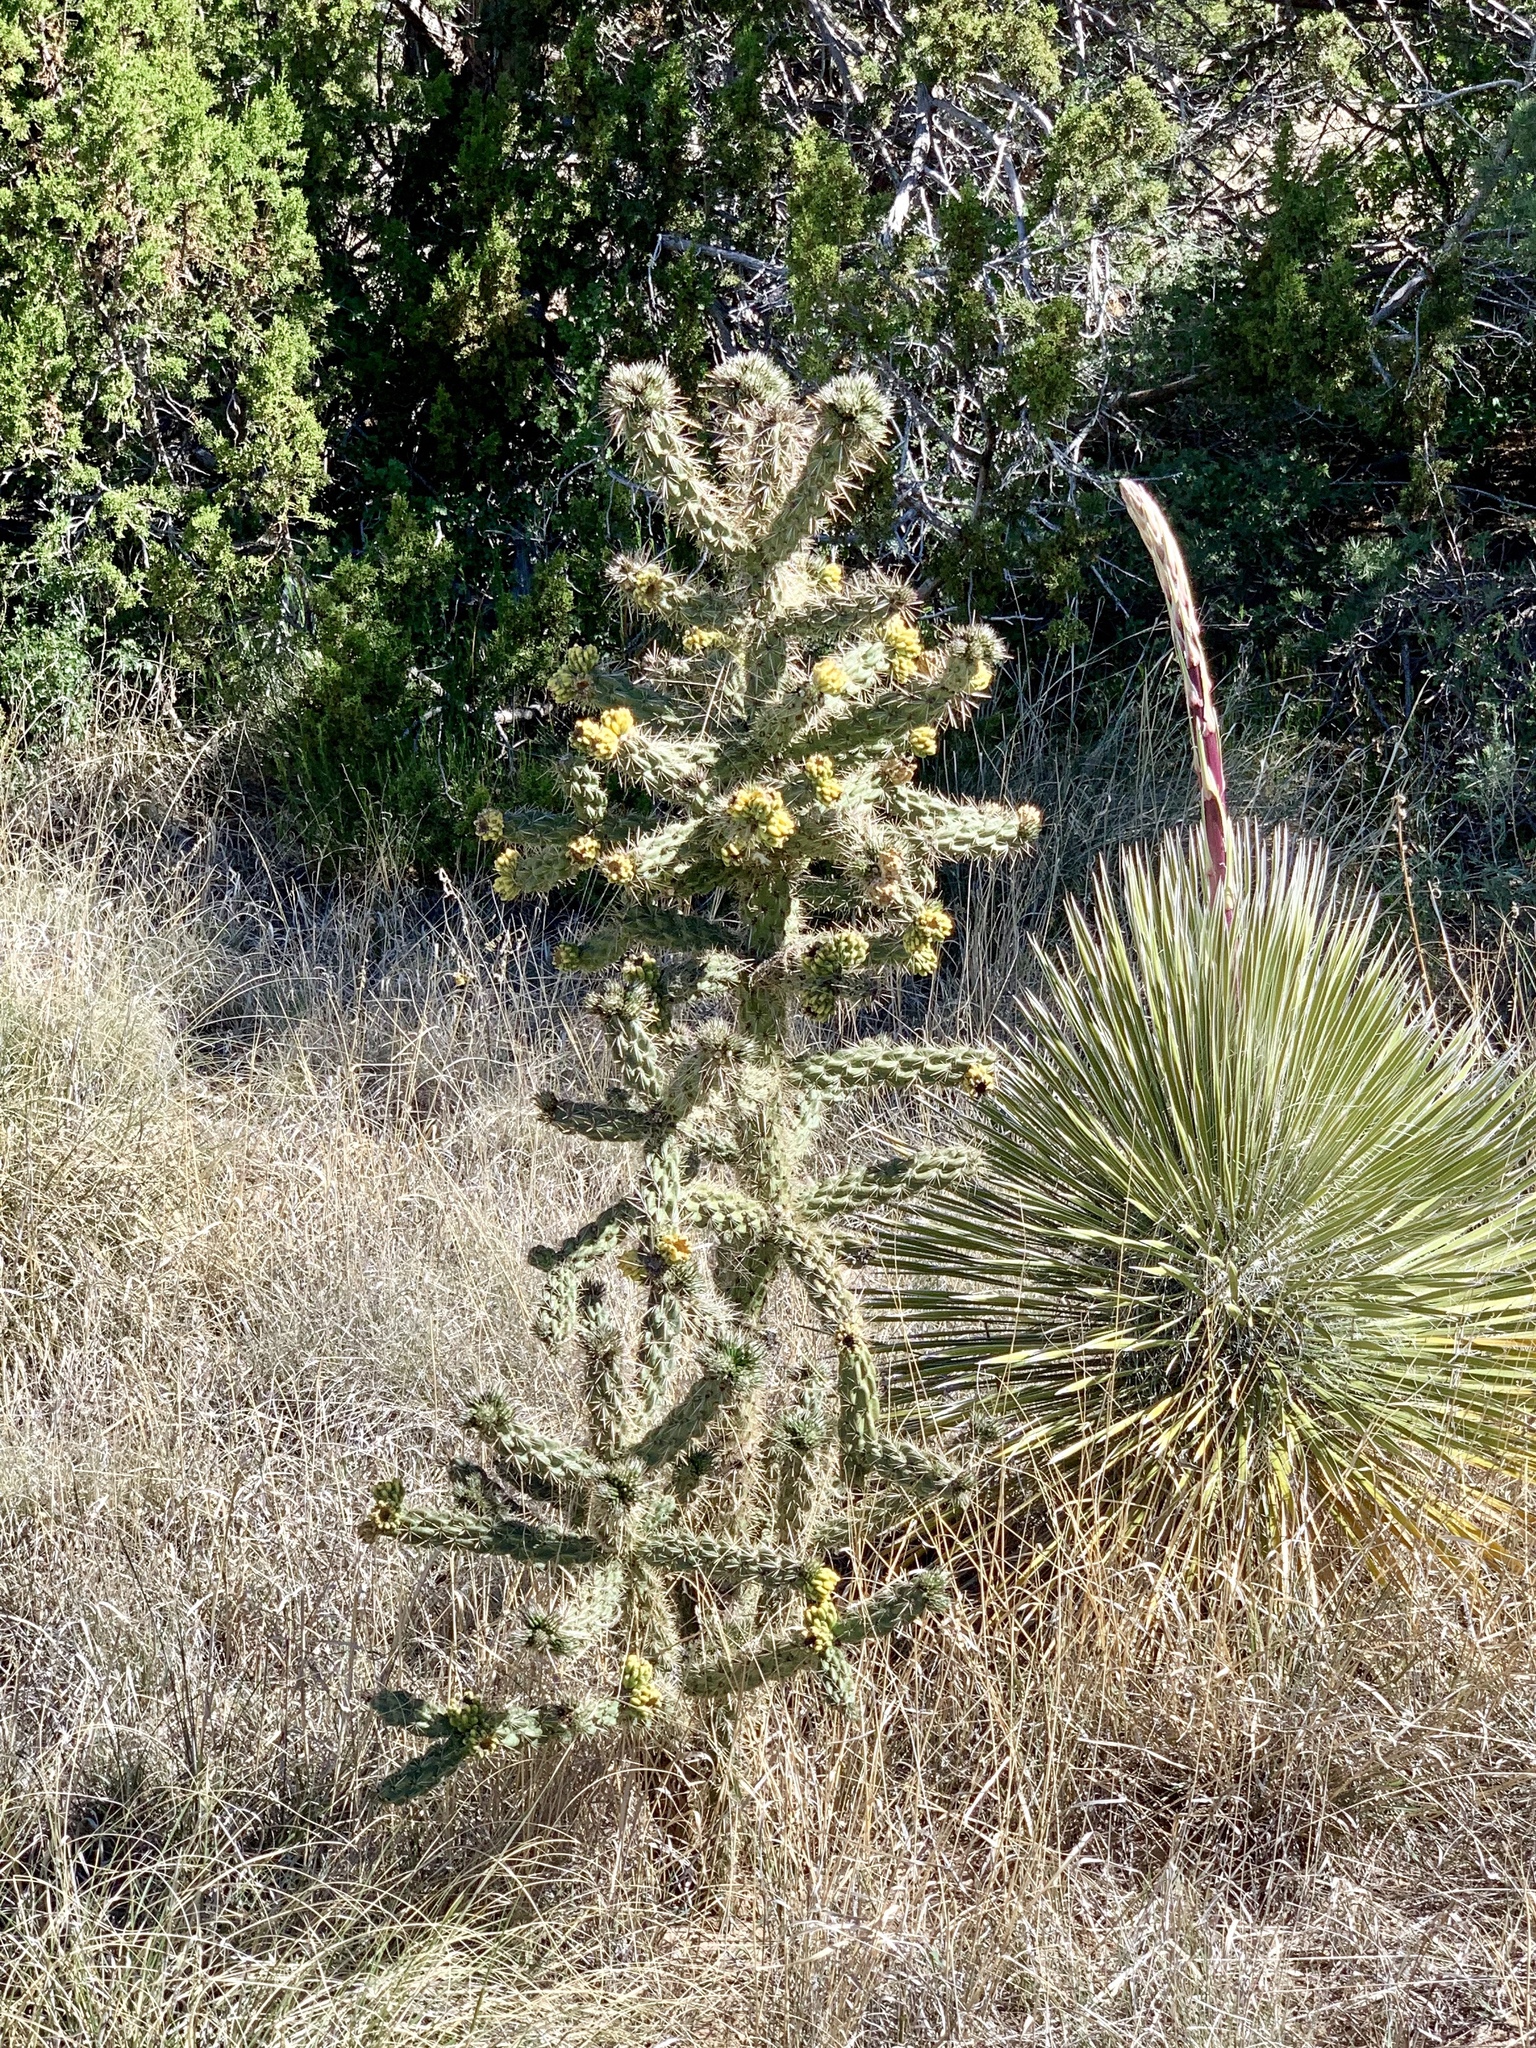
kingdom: Plantae
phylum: Tracheophyta
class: Magnoliopsida
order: Caryophyllales
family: Cactaceae
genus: Cylindropuntia
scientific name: Cylindropuntia imbricata
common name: Candelabrum cactus
